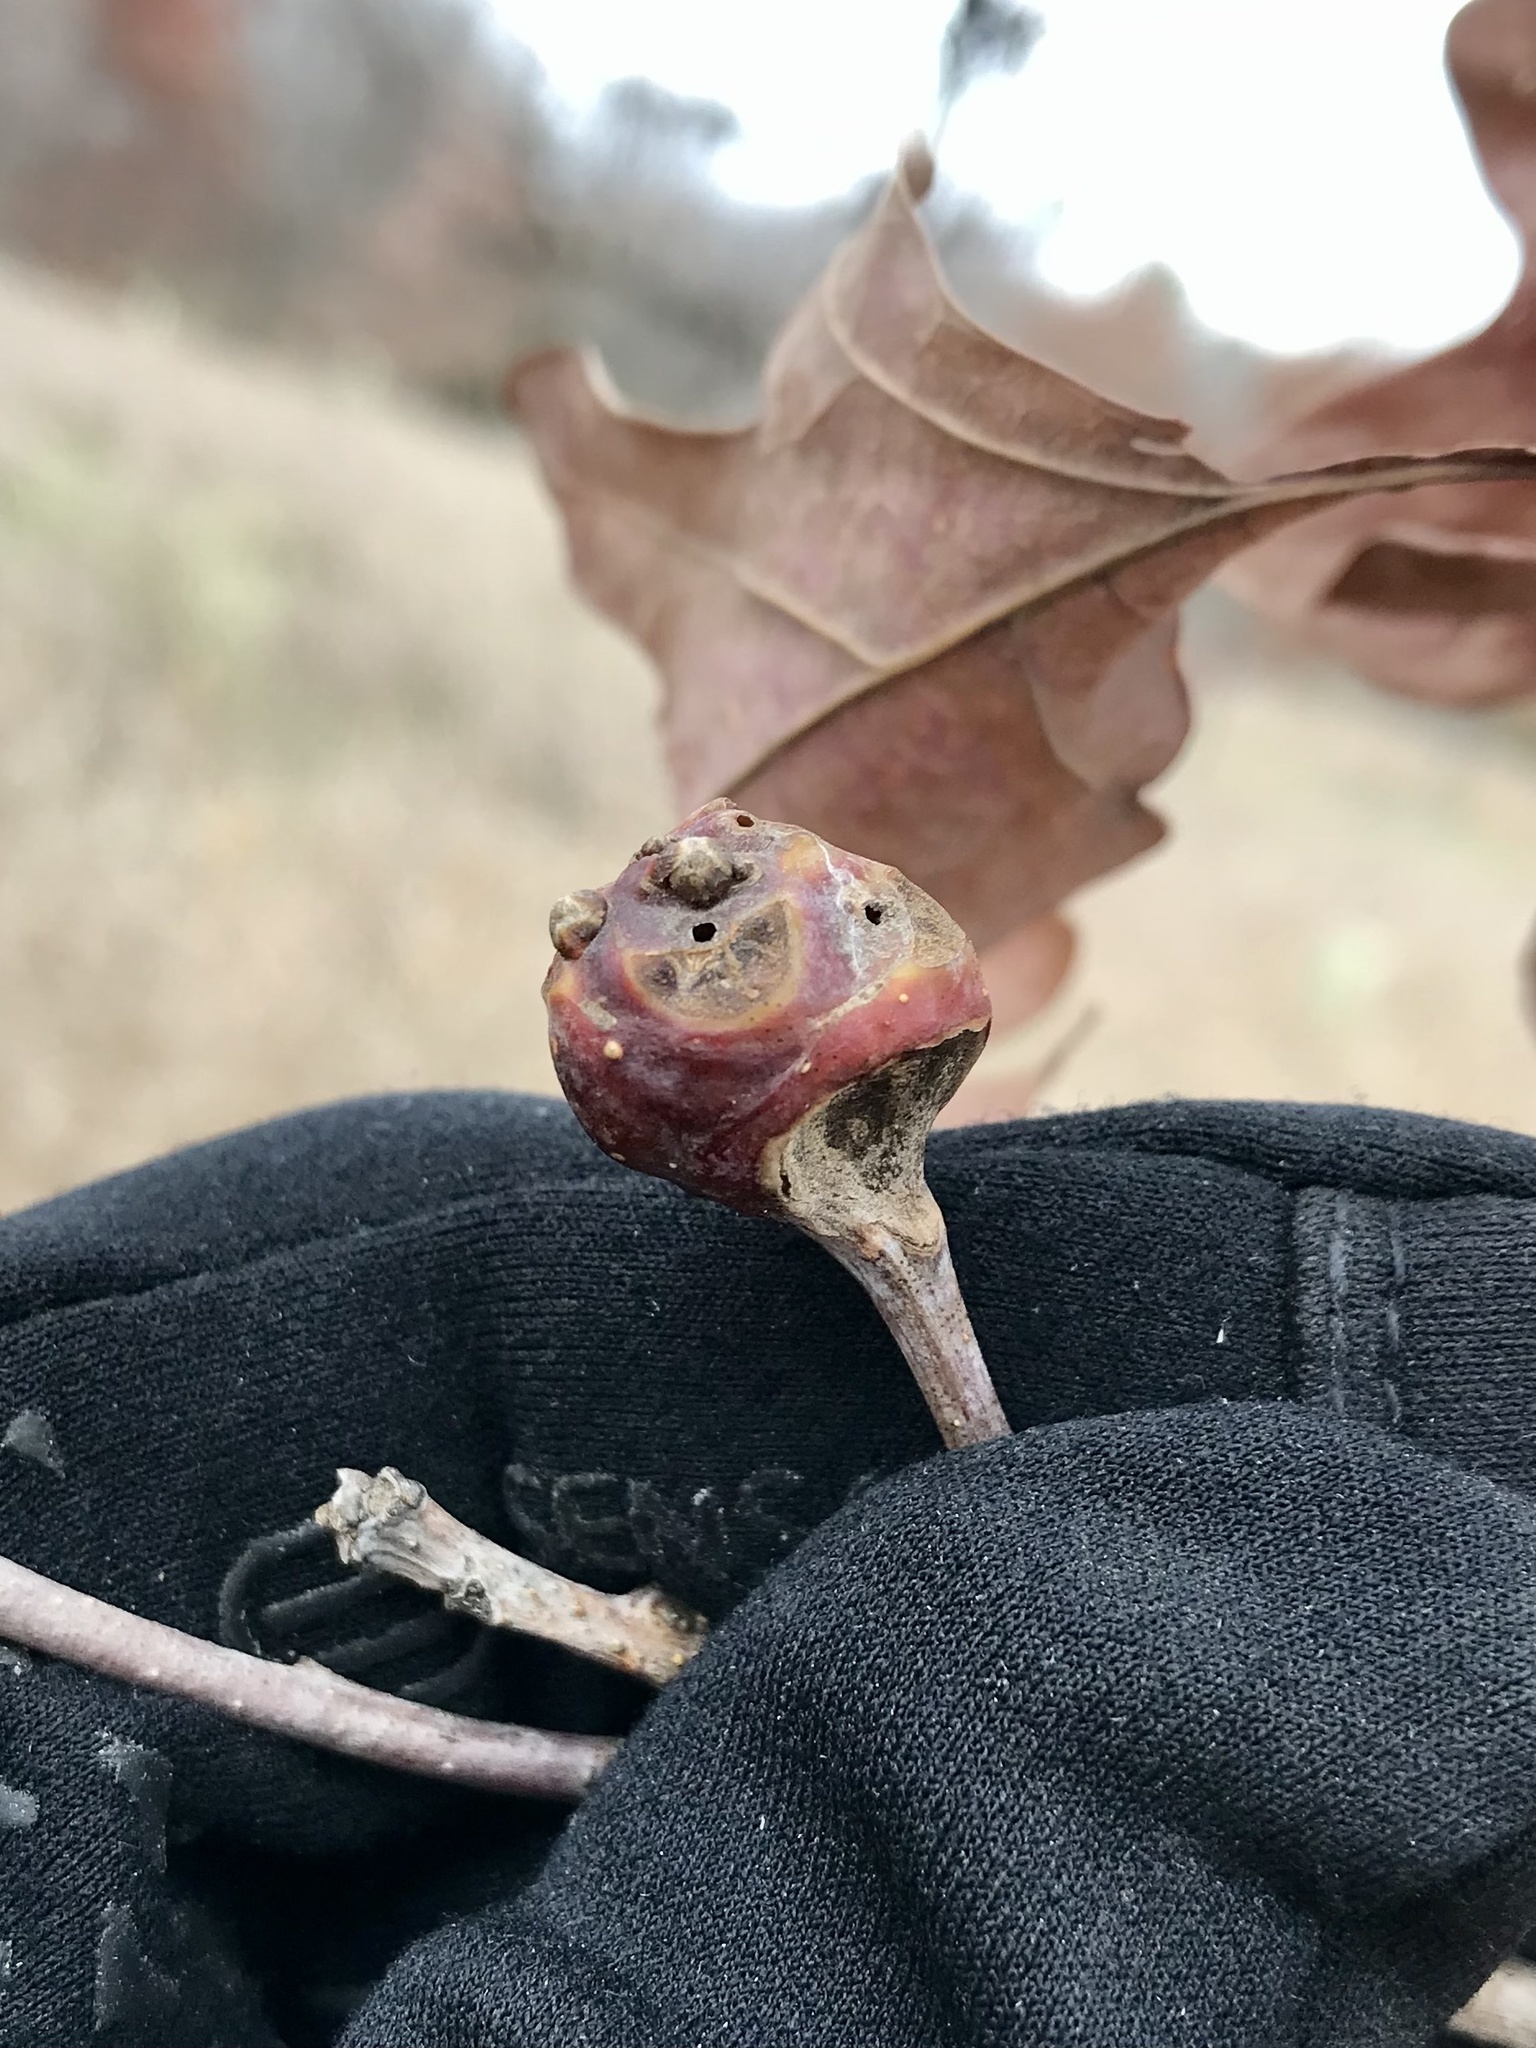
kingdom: Animalia
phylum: Arthropoda
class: Insecta
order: Hymenoptera
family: Cynipidae
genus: Callirhytis
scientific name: Callirhytis clavula
